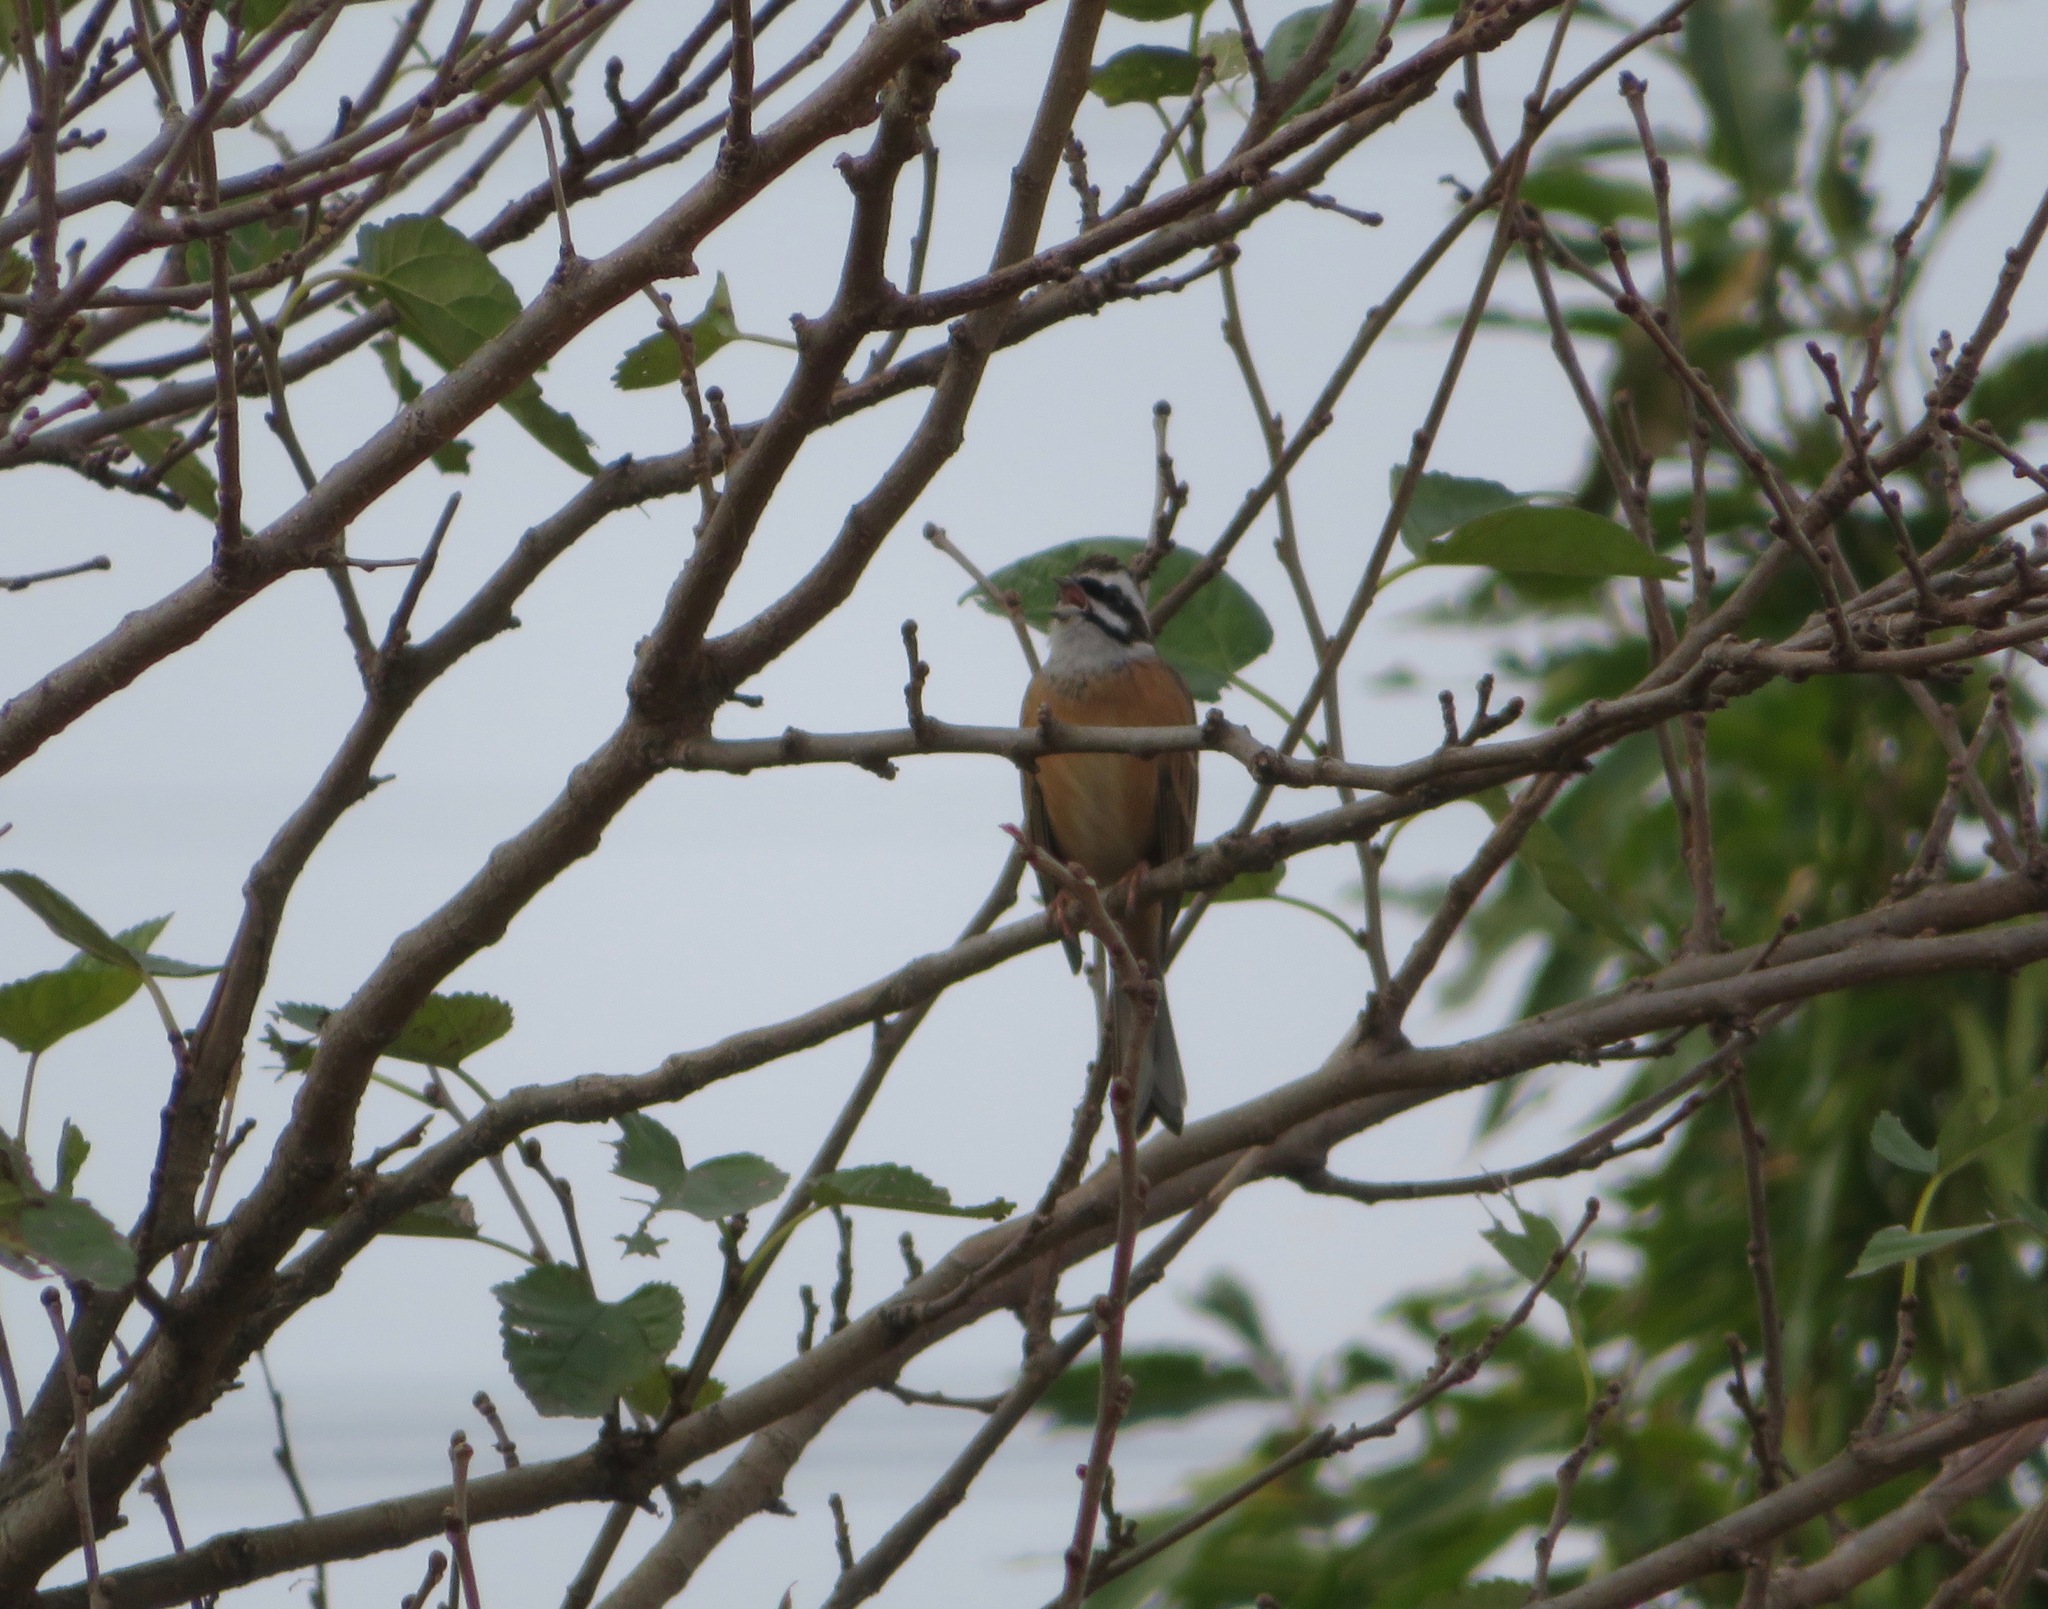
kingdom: Animalia
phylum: Chordata
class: Aves
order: Passeriformes
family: Emberizidae
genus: Emberiza
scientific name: Emberiza cioides
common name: Meadow bunting
